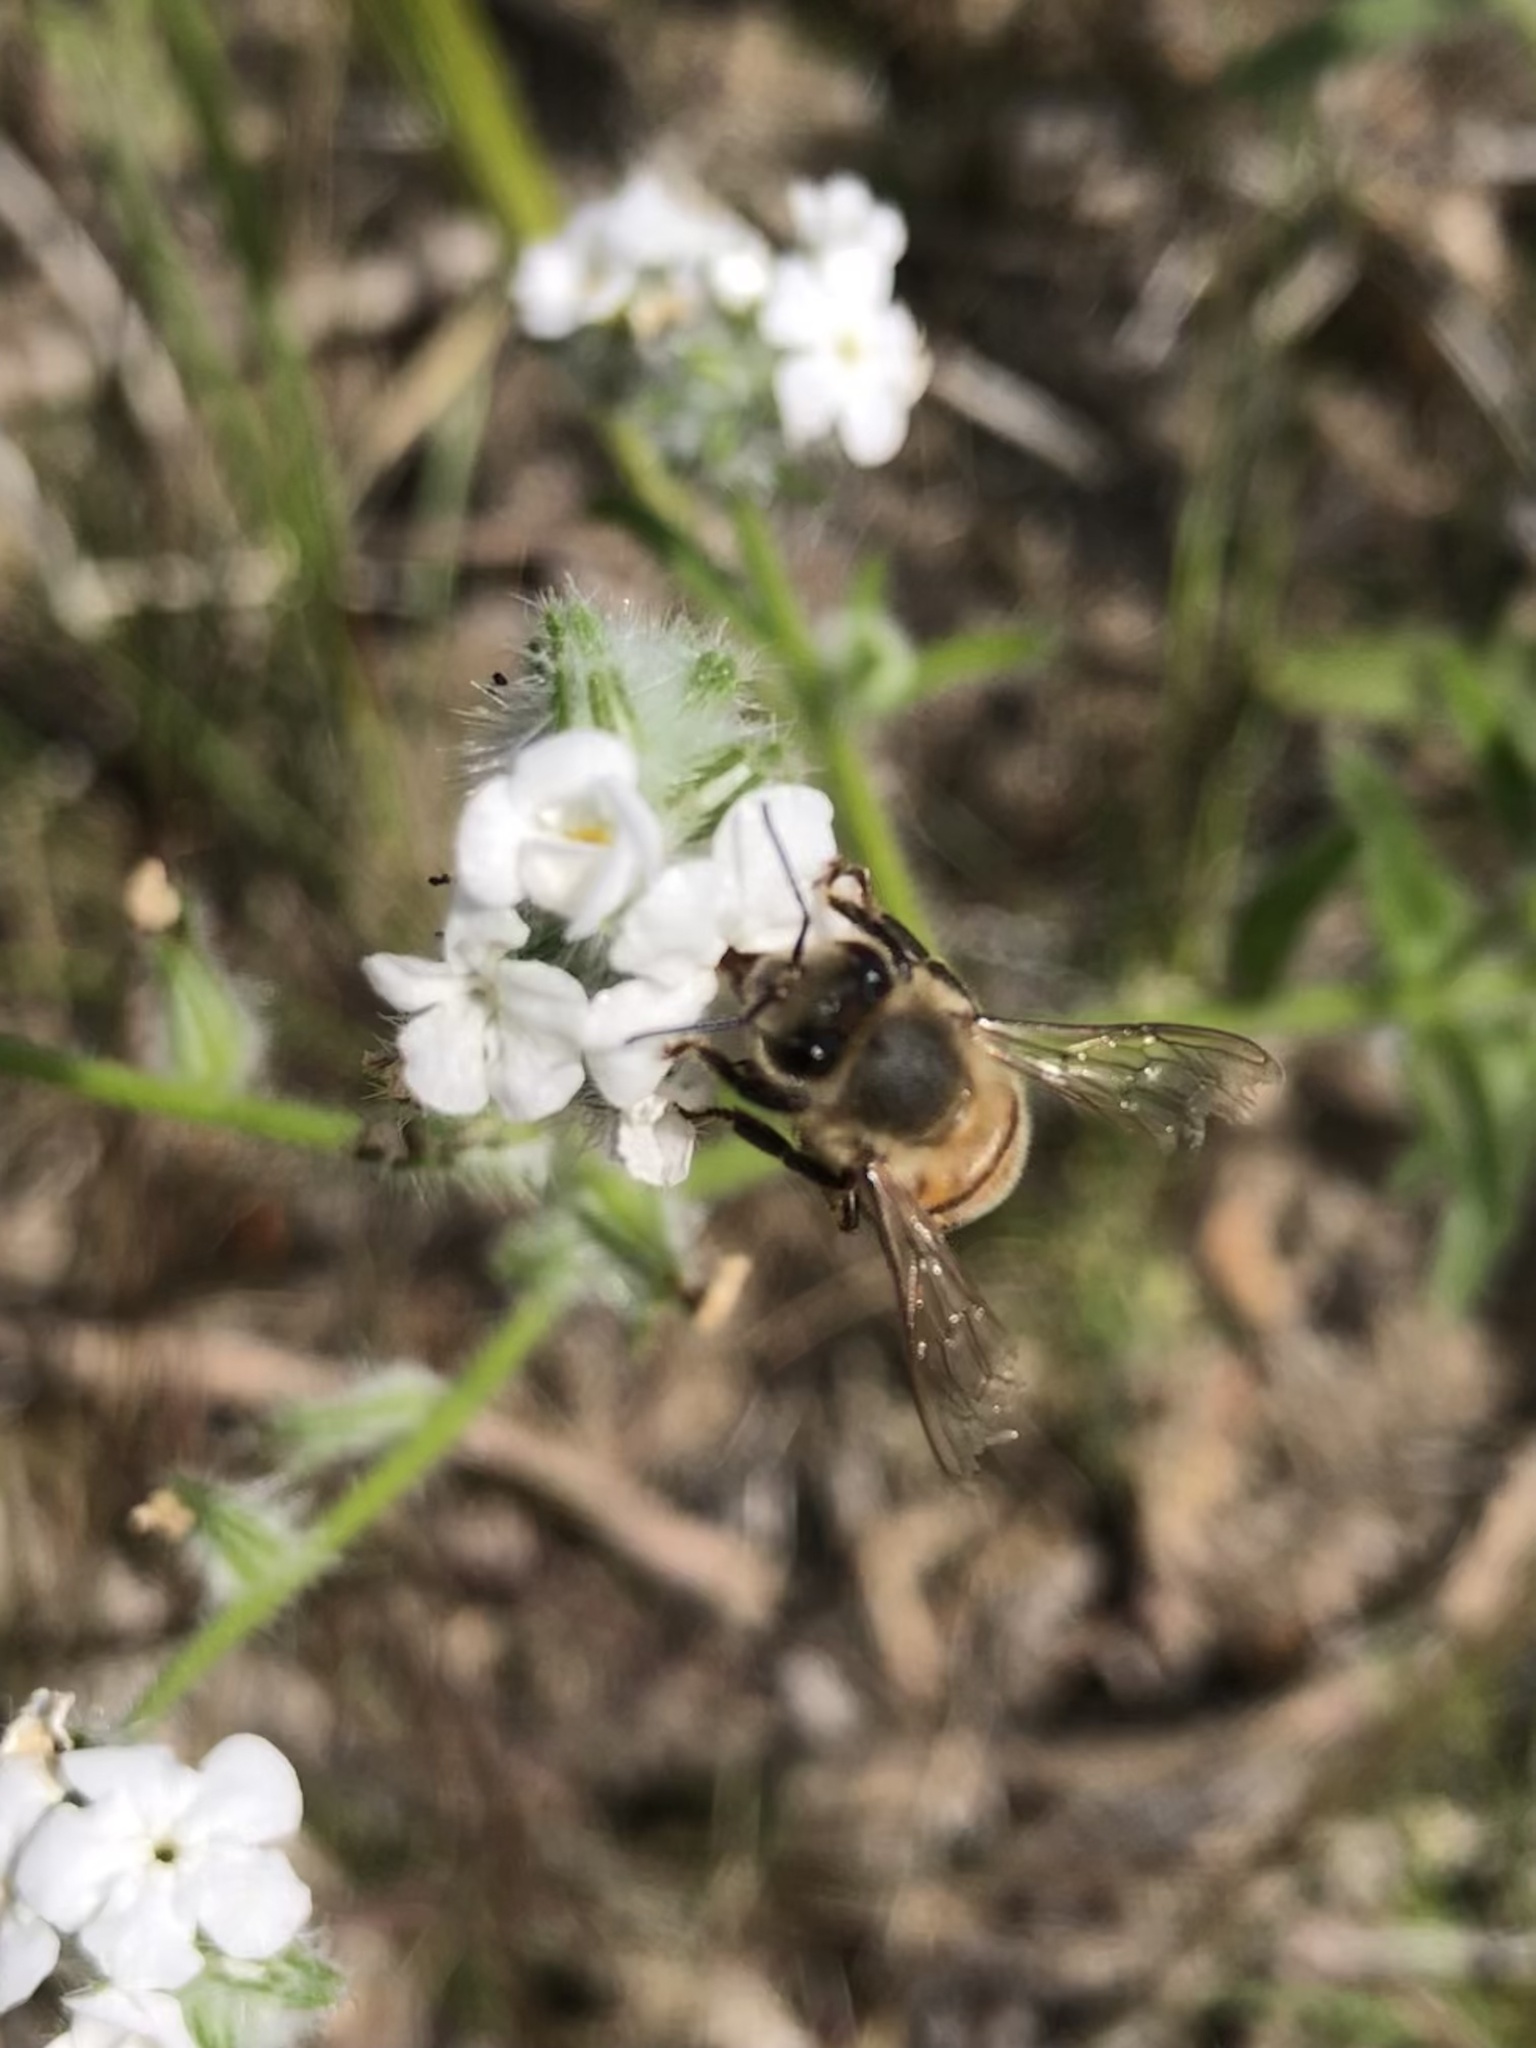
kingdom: Animalia
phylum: Arthropoda
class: Insecta
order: Hymenoptera
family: Apidae
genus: Apis
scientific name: Apis mellifera
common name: Honey bee
